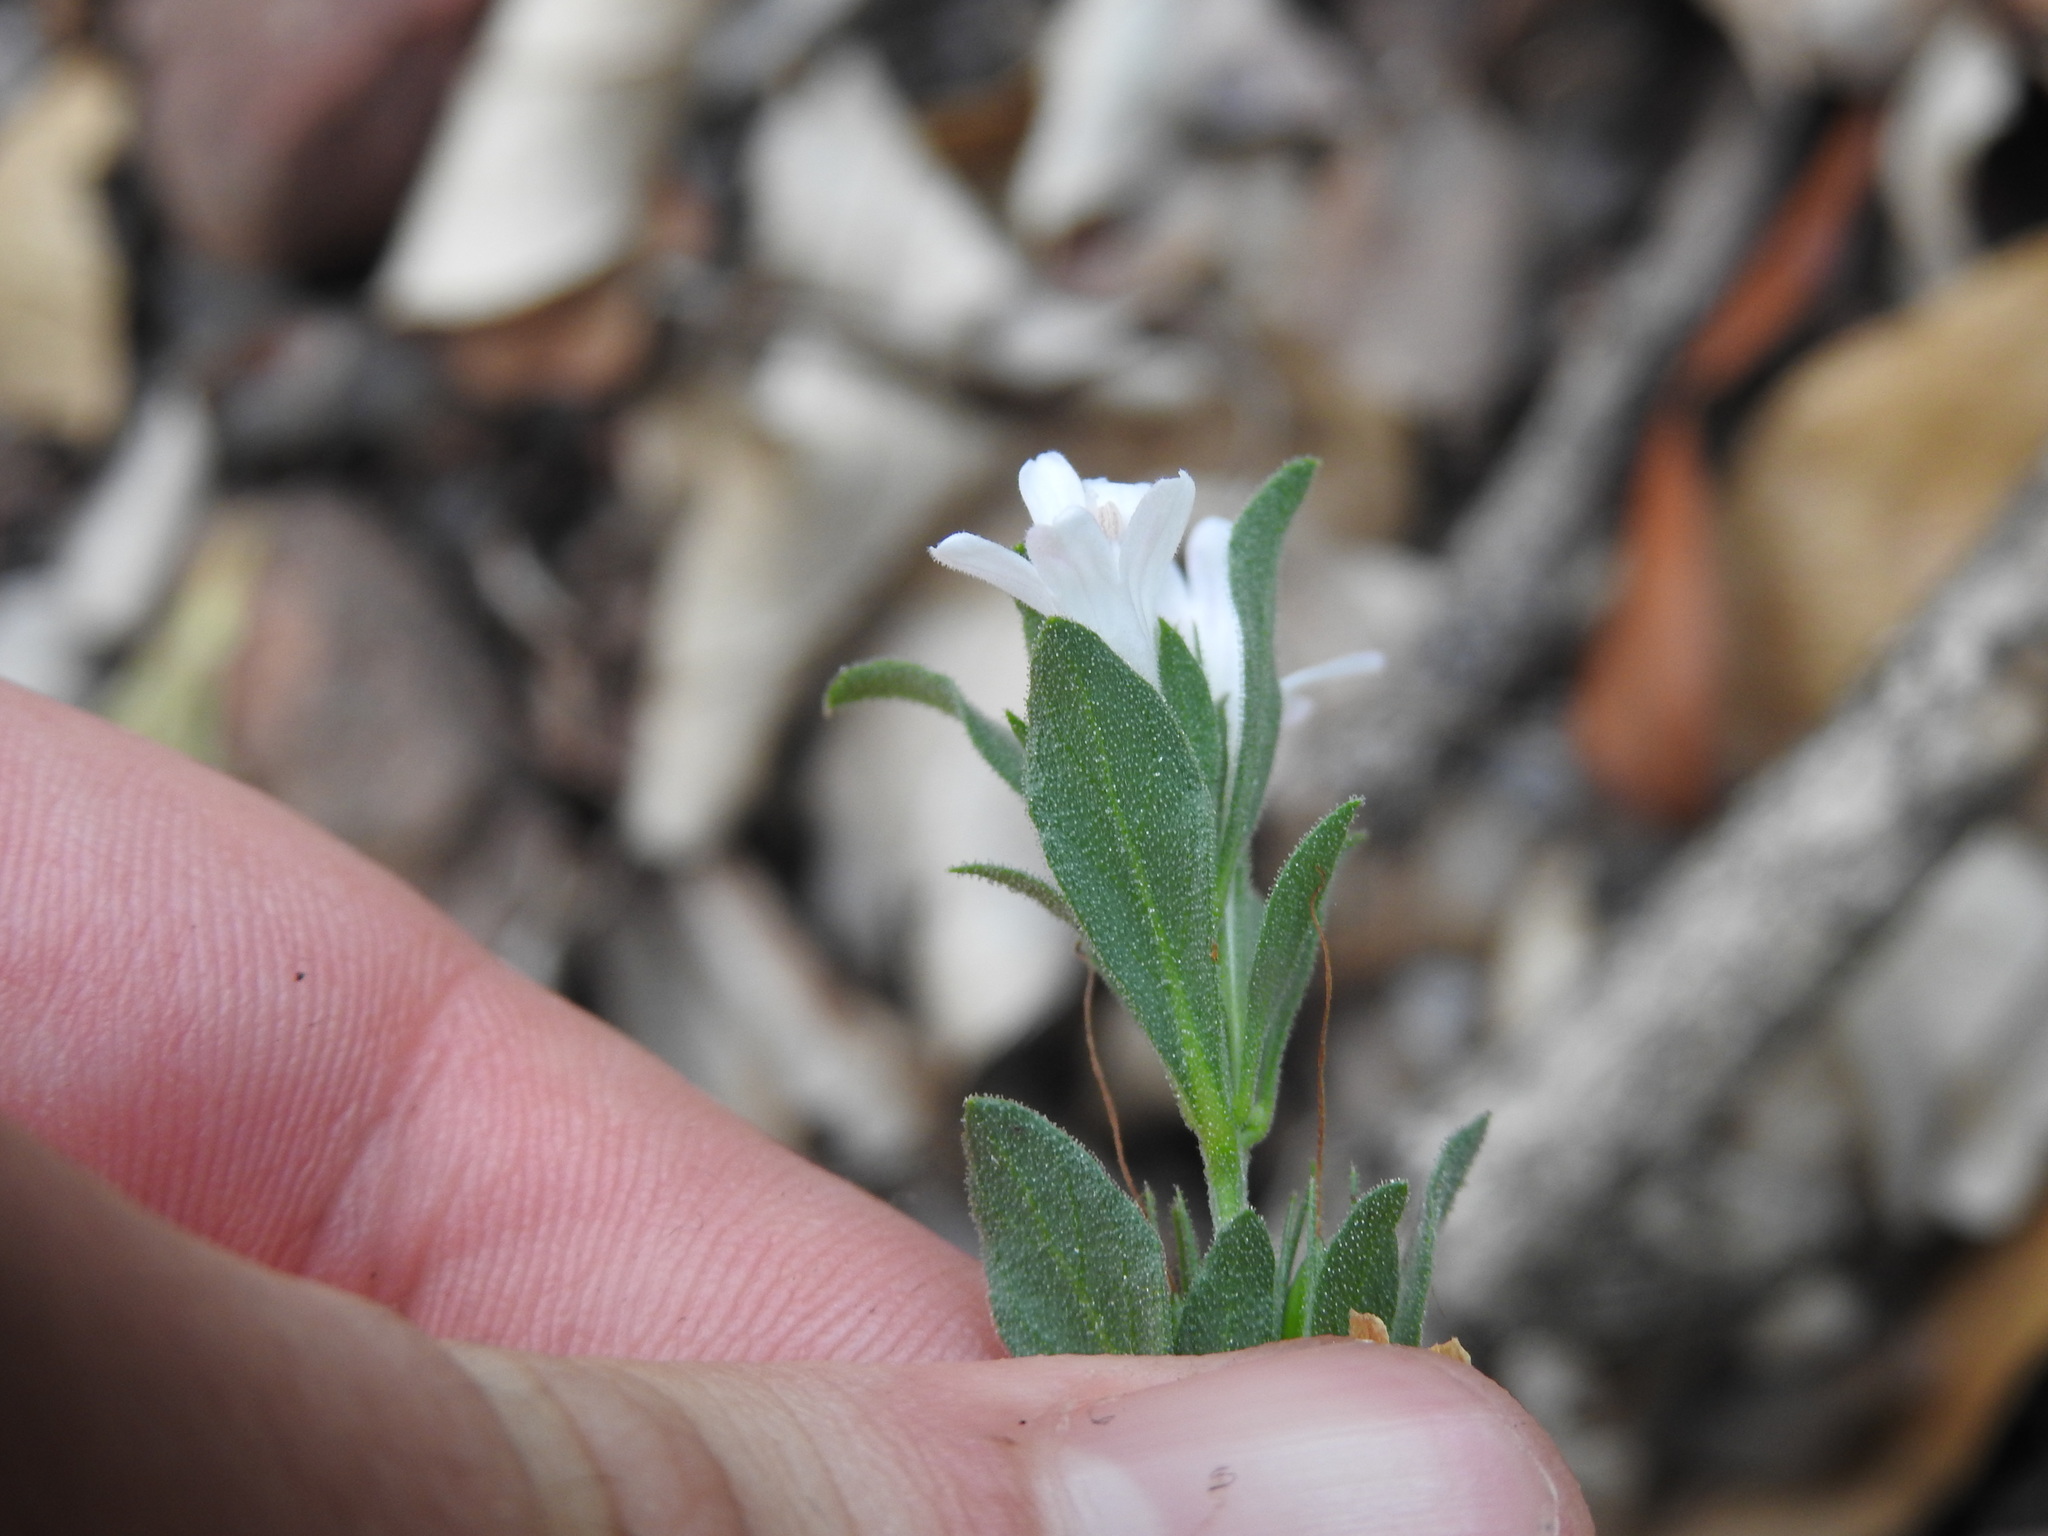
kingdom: Plantae
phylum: Tracheophyta
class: Magnoliopsida
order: Lamiales
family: Acanthaceae
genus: Dyschoriste
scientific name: Dyschoriste costata
